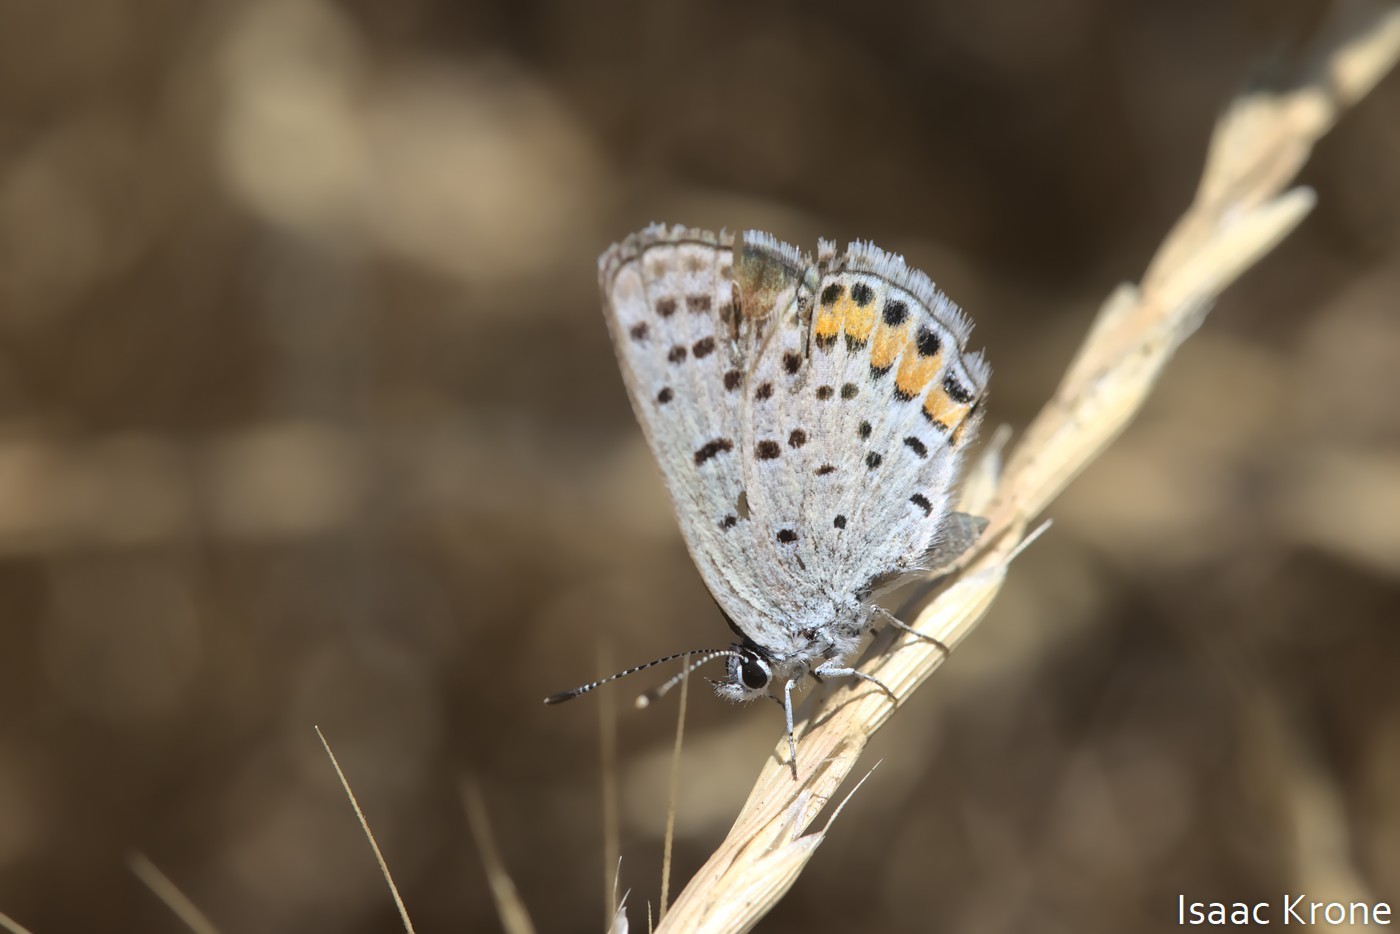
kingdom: Animalia
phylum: Arthropoda
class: Insecta
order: Lepidoptera
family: Lycaenidae
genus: Icaricia
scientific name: Icaricia acmon
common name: Acmon blue
